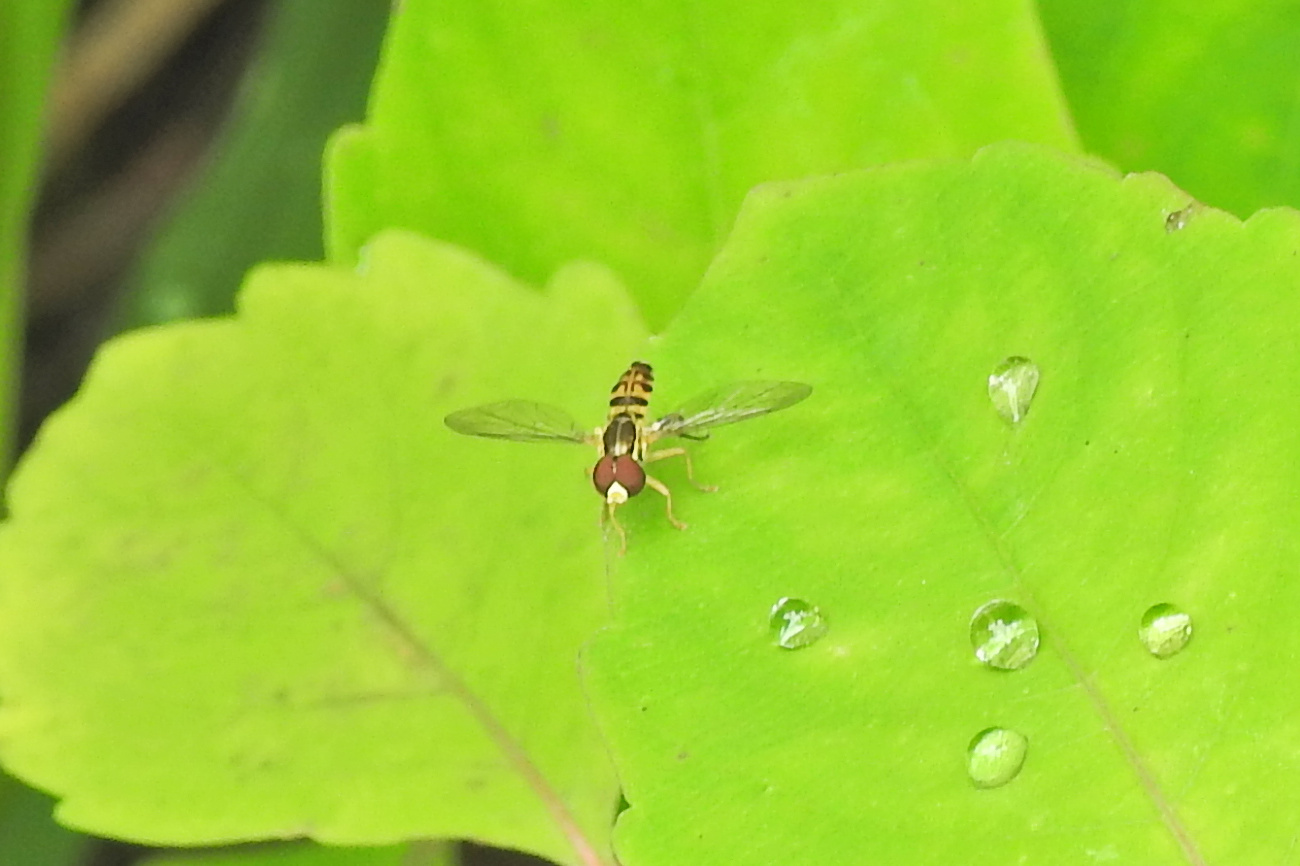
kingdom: Animalia
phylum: Arthropoda
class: Insecta
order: Diptera
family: Syrphidae
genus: Toxomerus
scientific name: Toxomerus geminatus
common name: Eastern calligrapher
